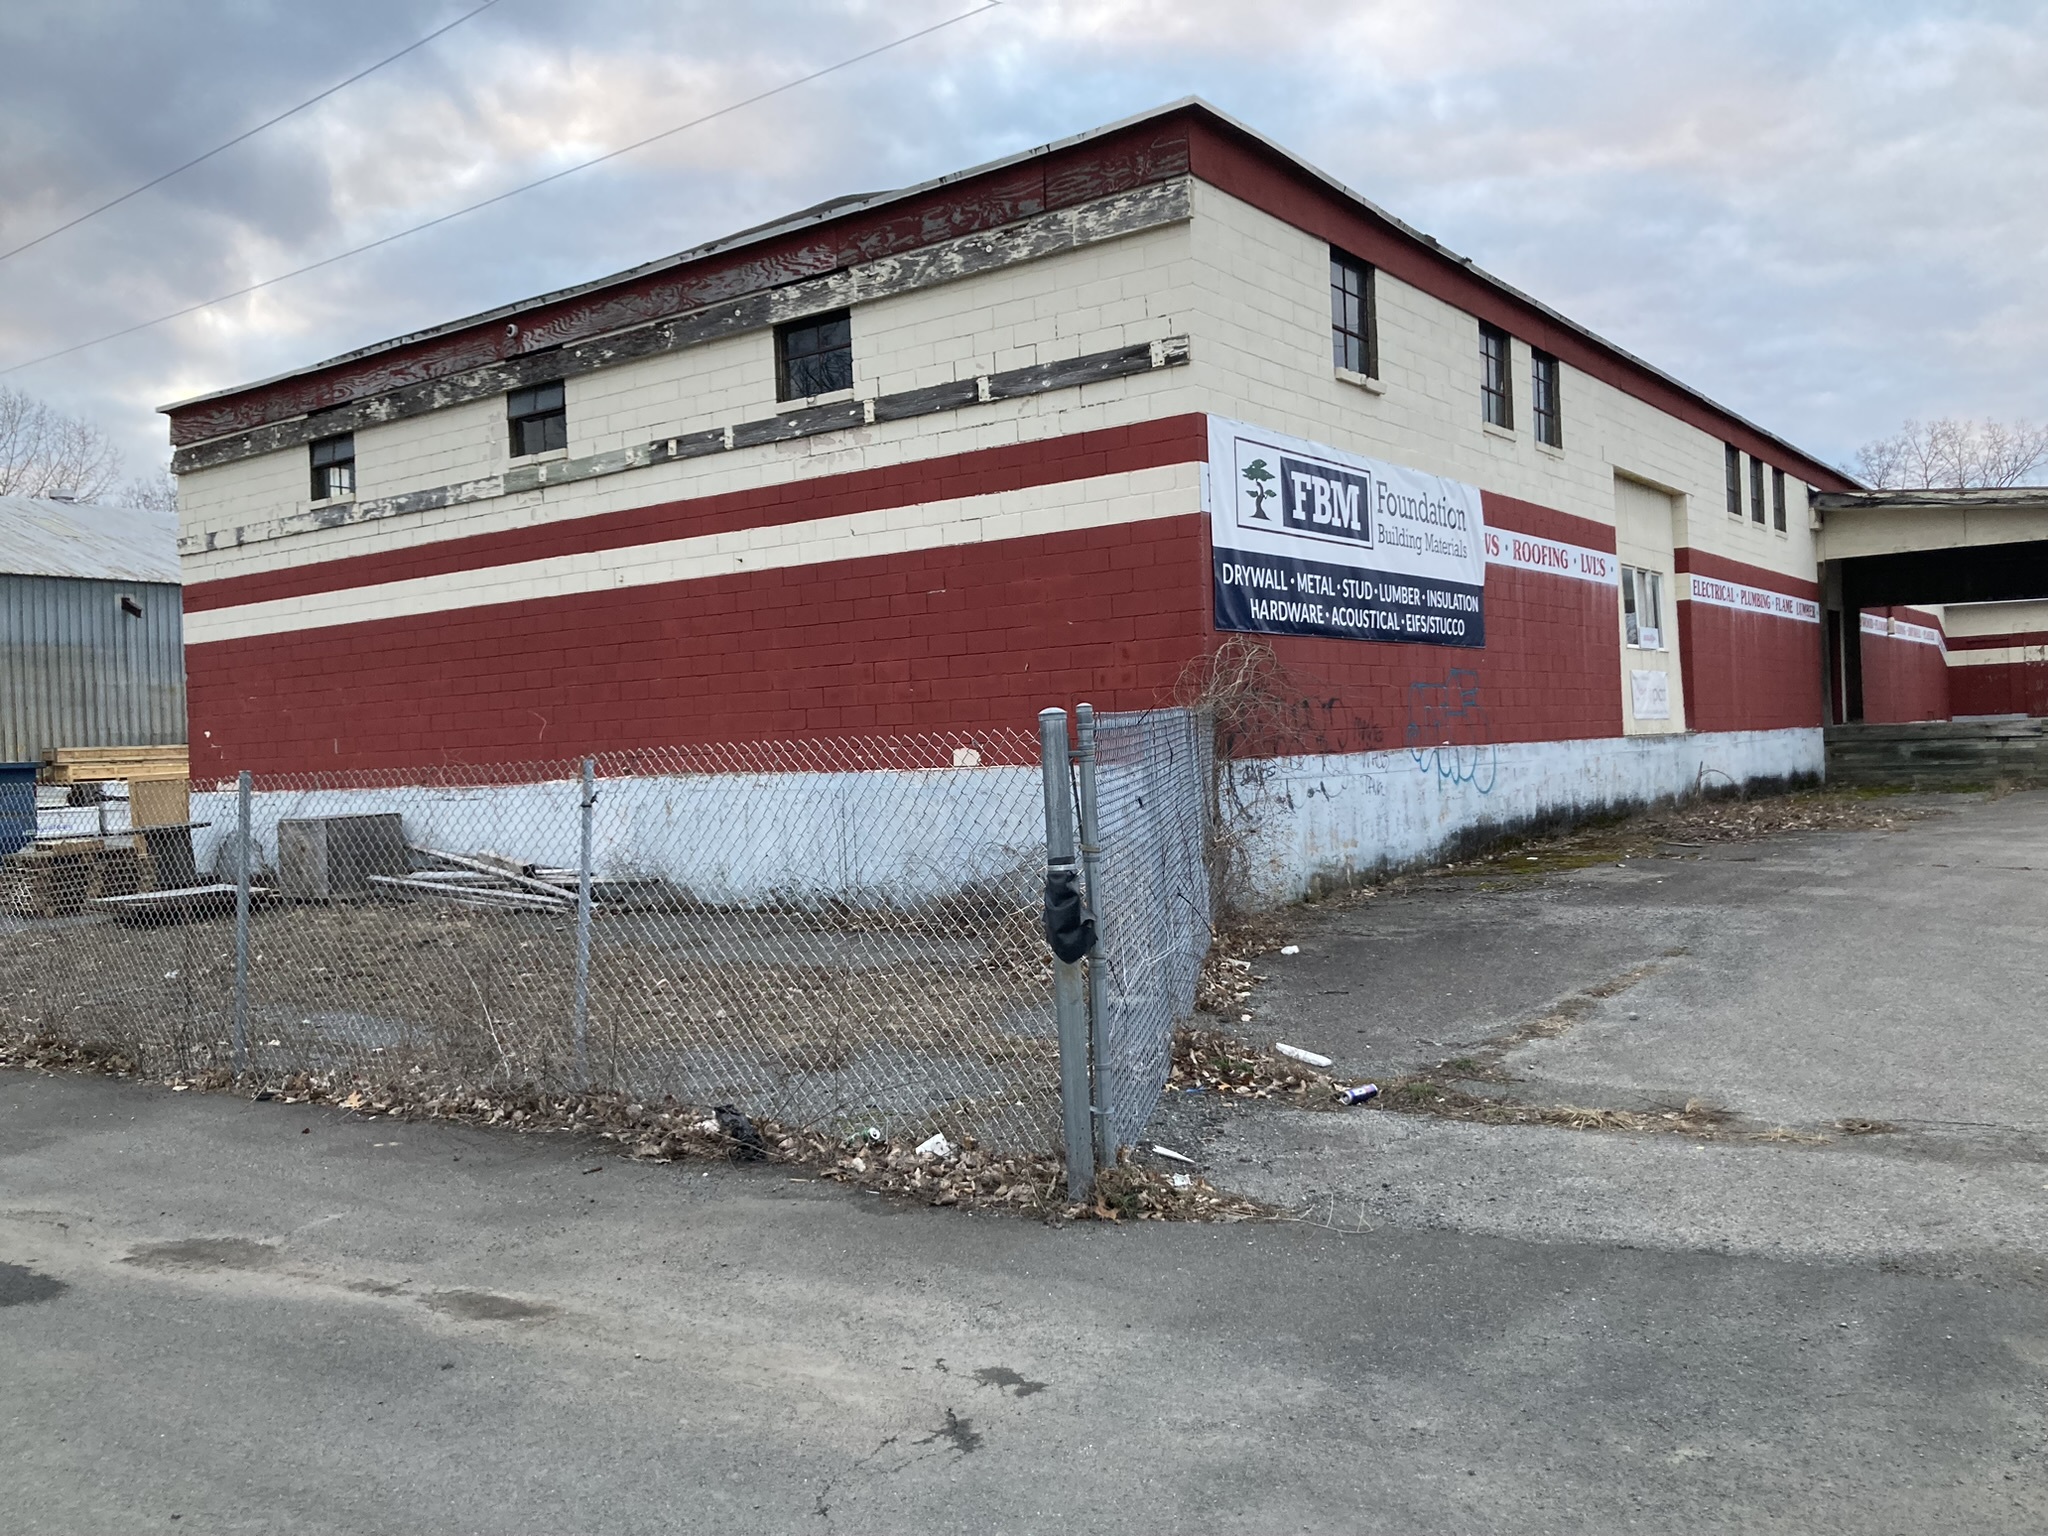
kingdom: Plantae
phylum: Tracheophyta
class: Magnoliopsida
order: Asterales
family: Asteraceae
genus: Centaurea
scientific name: Centaurea stoebe
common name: Spotted knapweed
